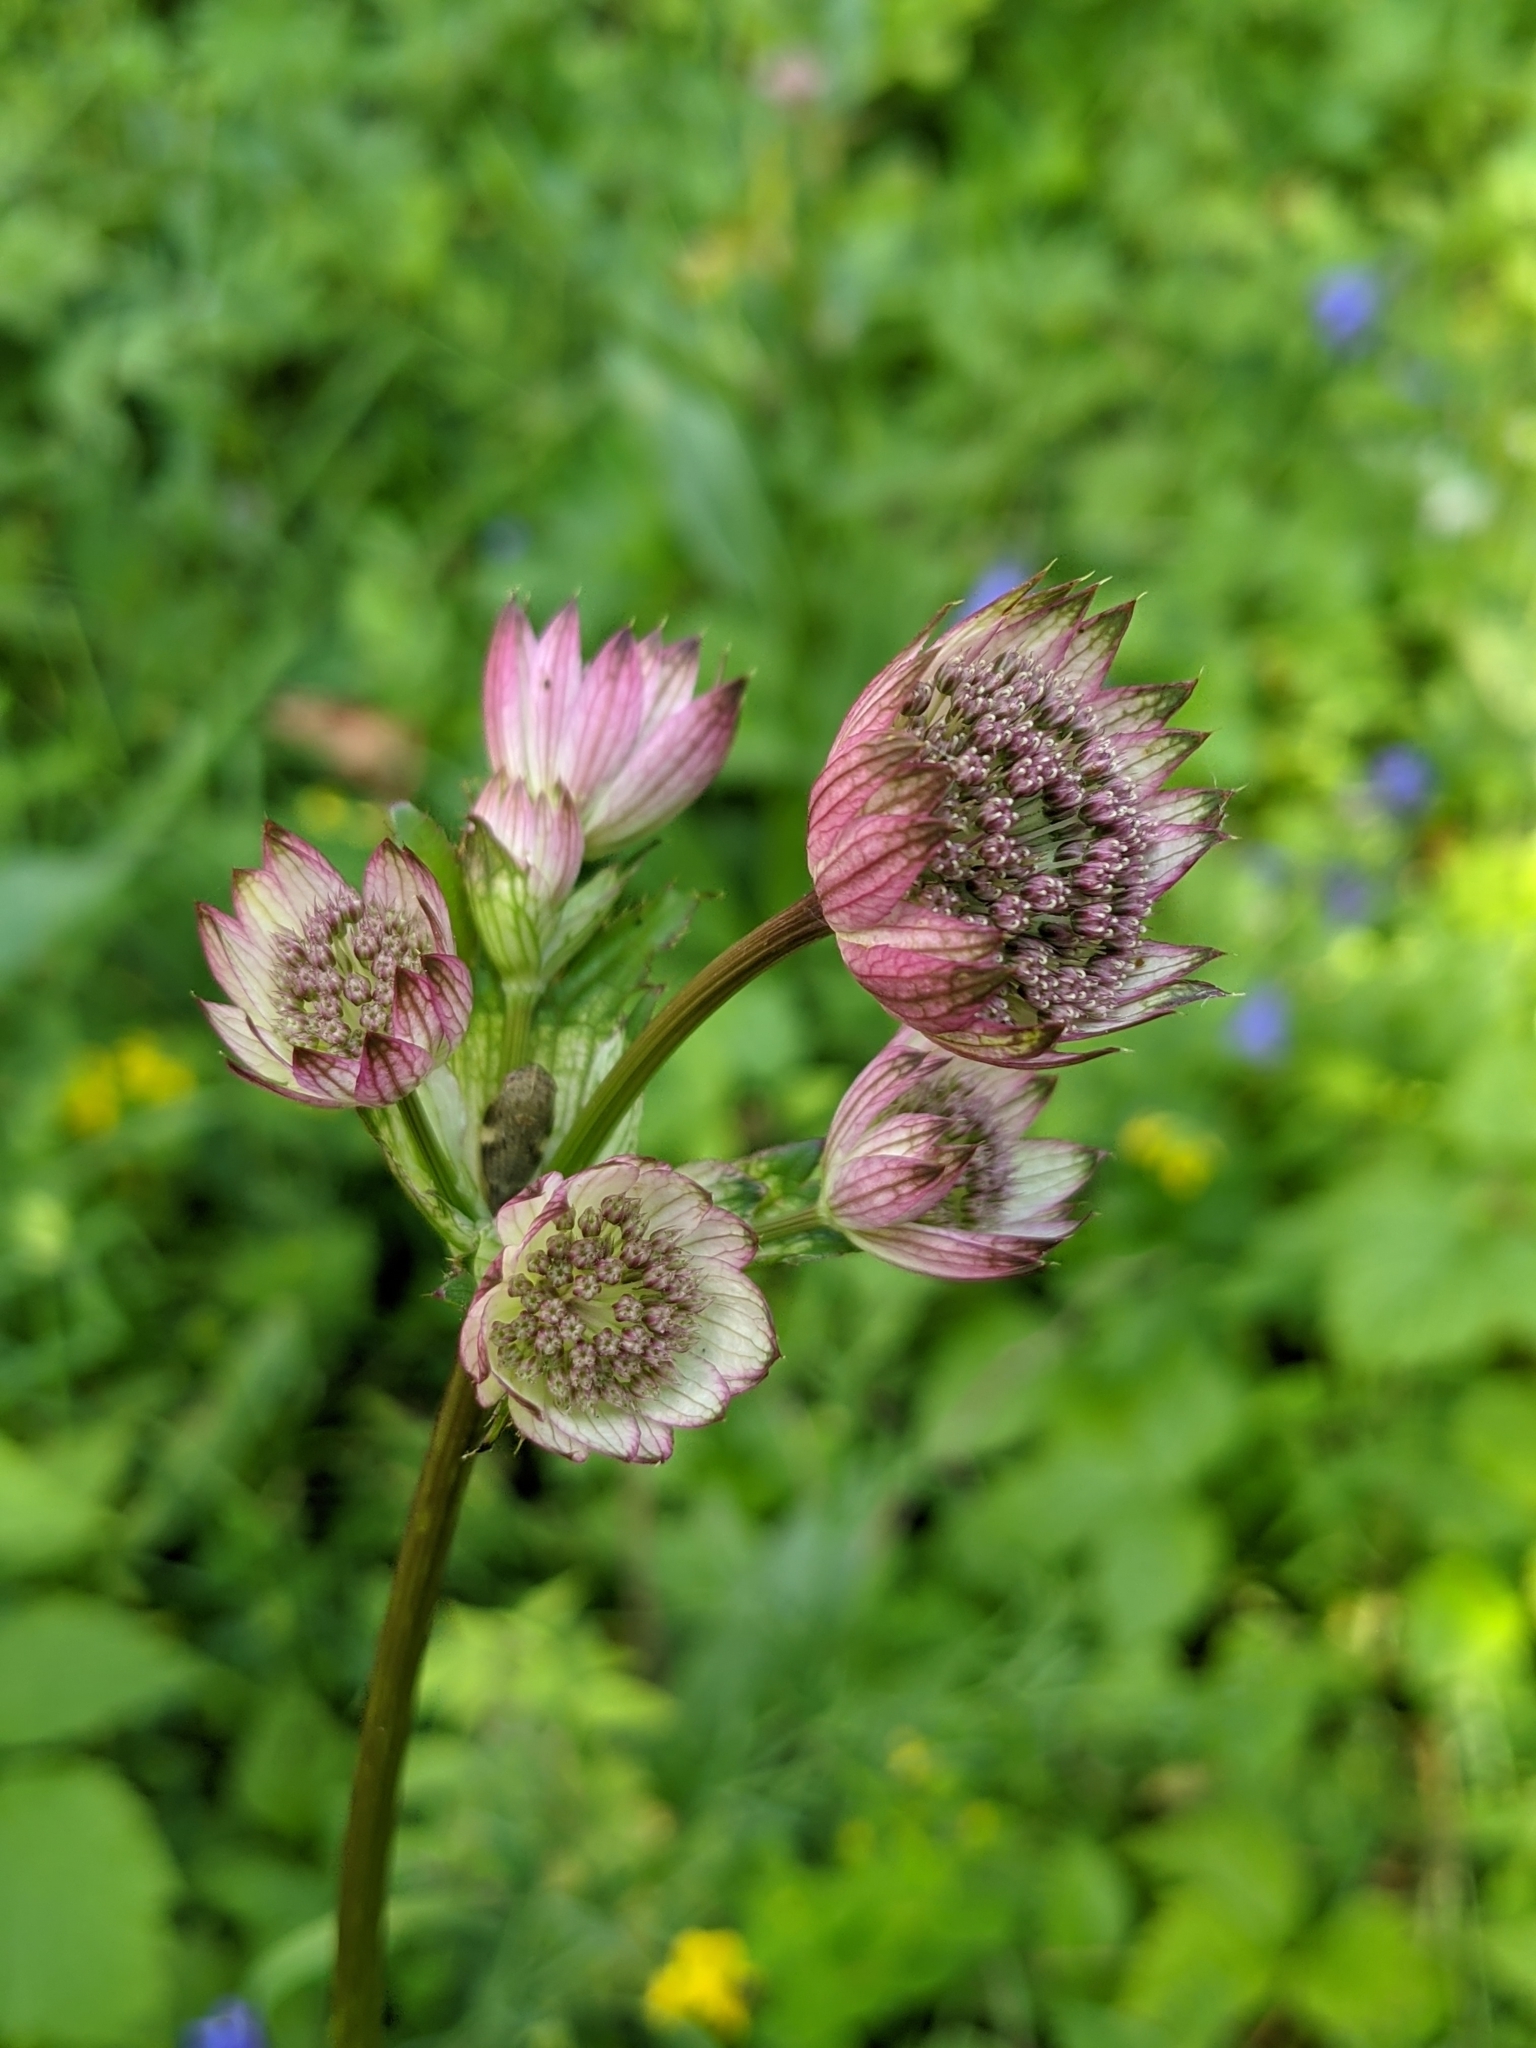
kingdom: Plantae
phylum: Tracheophyta
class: Magnoliopsida
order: Apiales
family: Apiaceae
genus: Astrantia
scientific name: Astrantia major
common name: Greater masterwort
